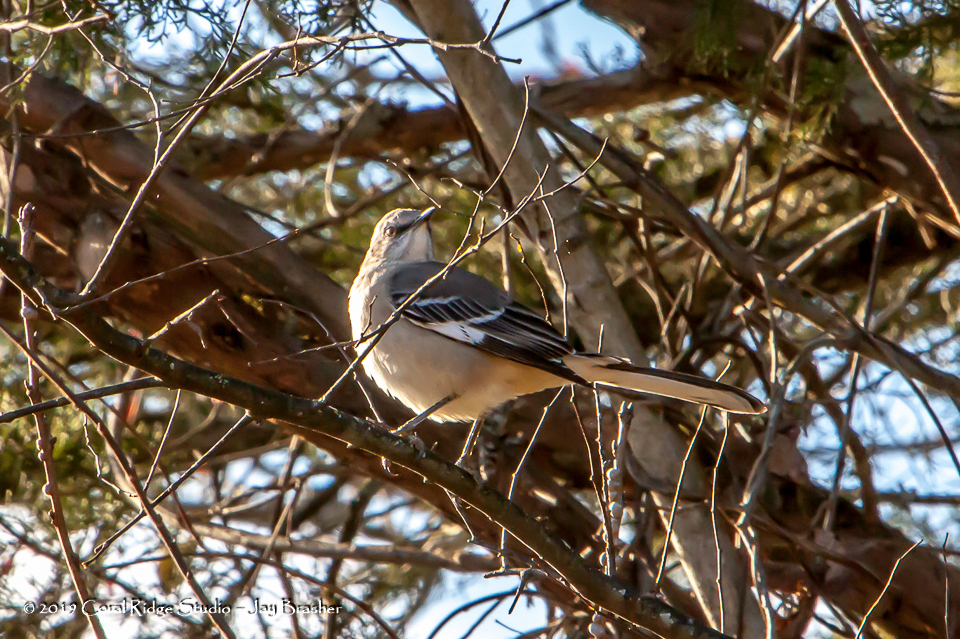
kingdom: Animalia
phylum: Chordata
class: Aves
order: Passeriformes
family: Mimidae
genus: Mimus
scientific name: Mimus polyglottos
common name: Northern mockingbird
